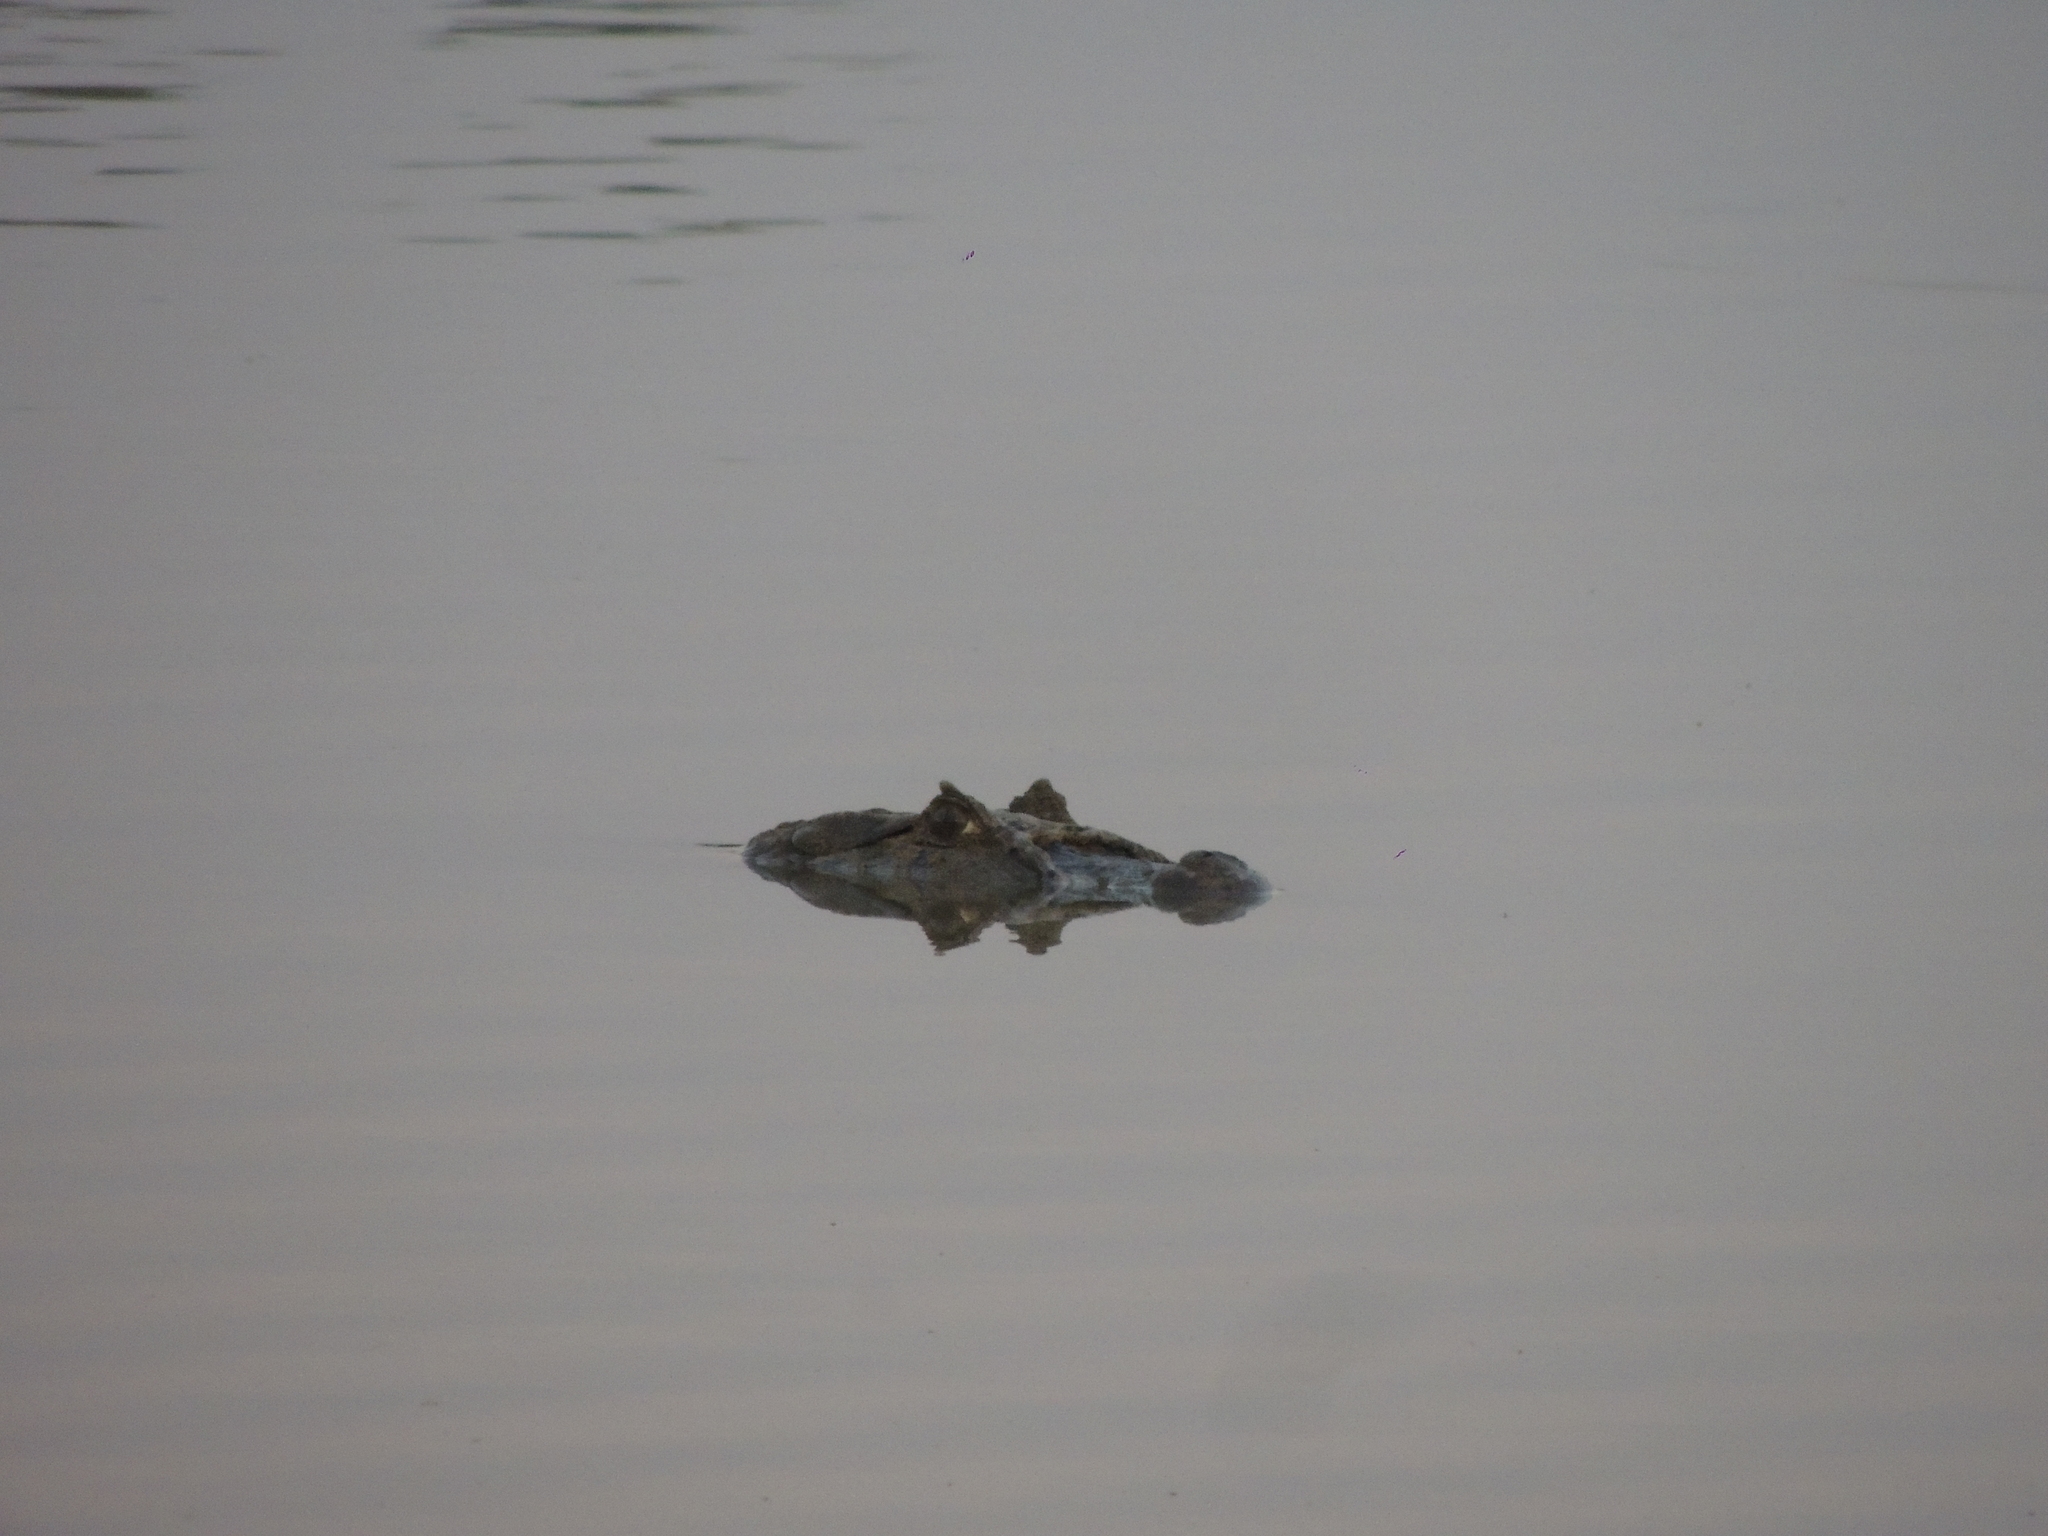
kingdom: Animalia
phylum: Chordata
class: Crocodylia
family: Alligatoridae
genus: Caiman
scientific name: Caiman latirostris
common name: Broad-snouted caiman
